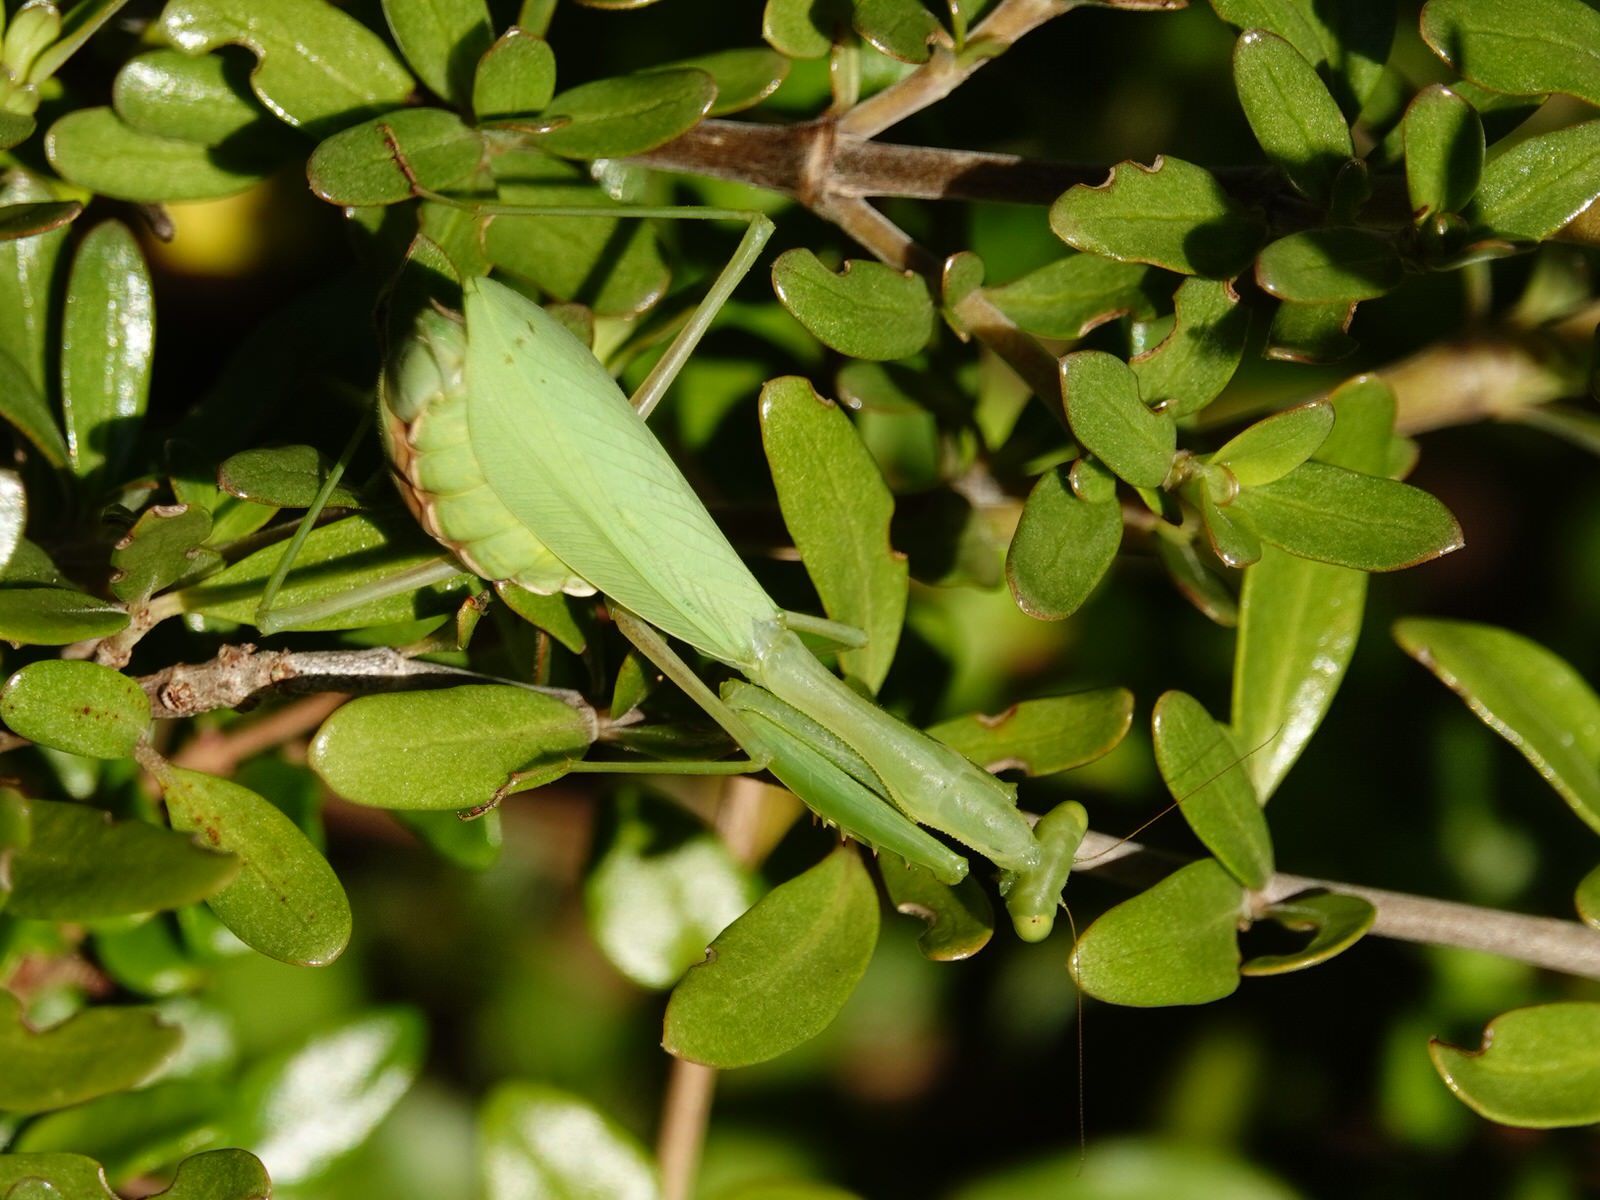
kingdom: Animalia
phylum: Arthropoda
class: Insecta
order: Mantodea
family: Miomantidae
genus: Miomantis
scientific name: Miomantis caffra
